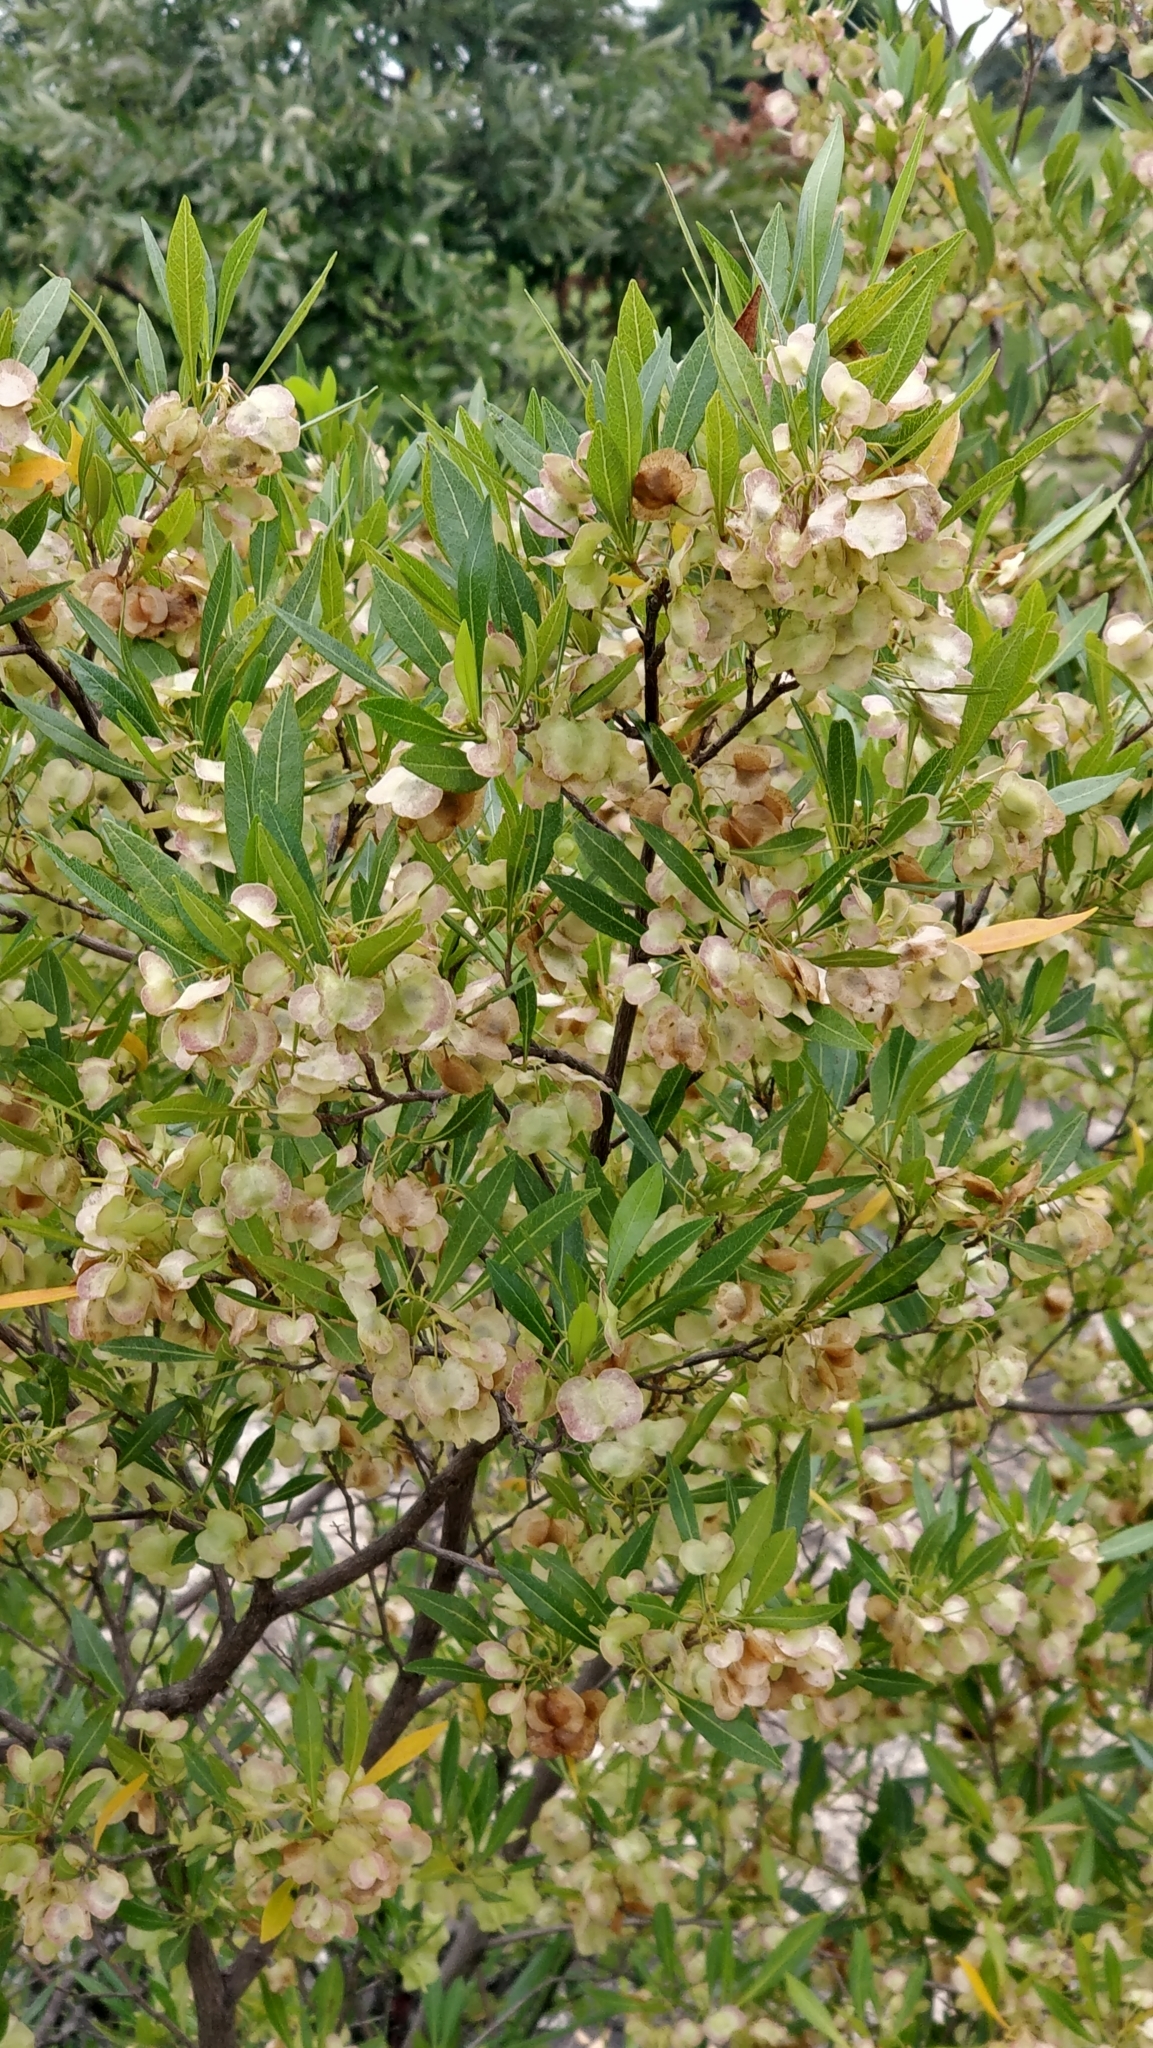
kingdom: Plantae
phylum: Tracheophyta
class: Magnoliopsida
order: Sapindales
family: Sapindaceae
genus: Dodonaea
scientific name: Dodonaea viscosa
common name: Hopbush
